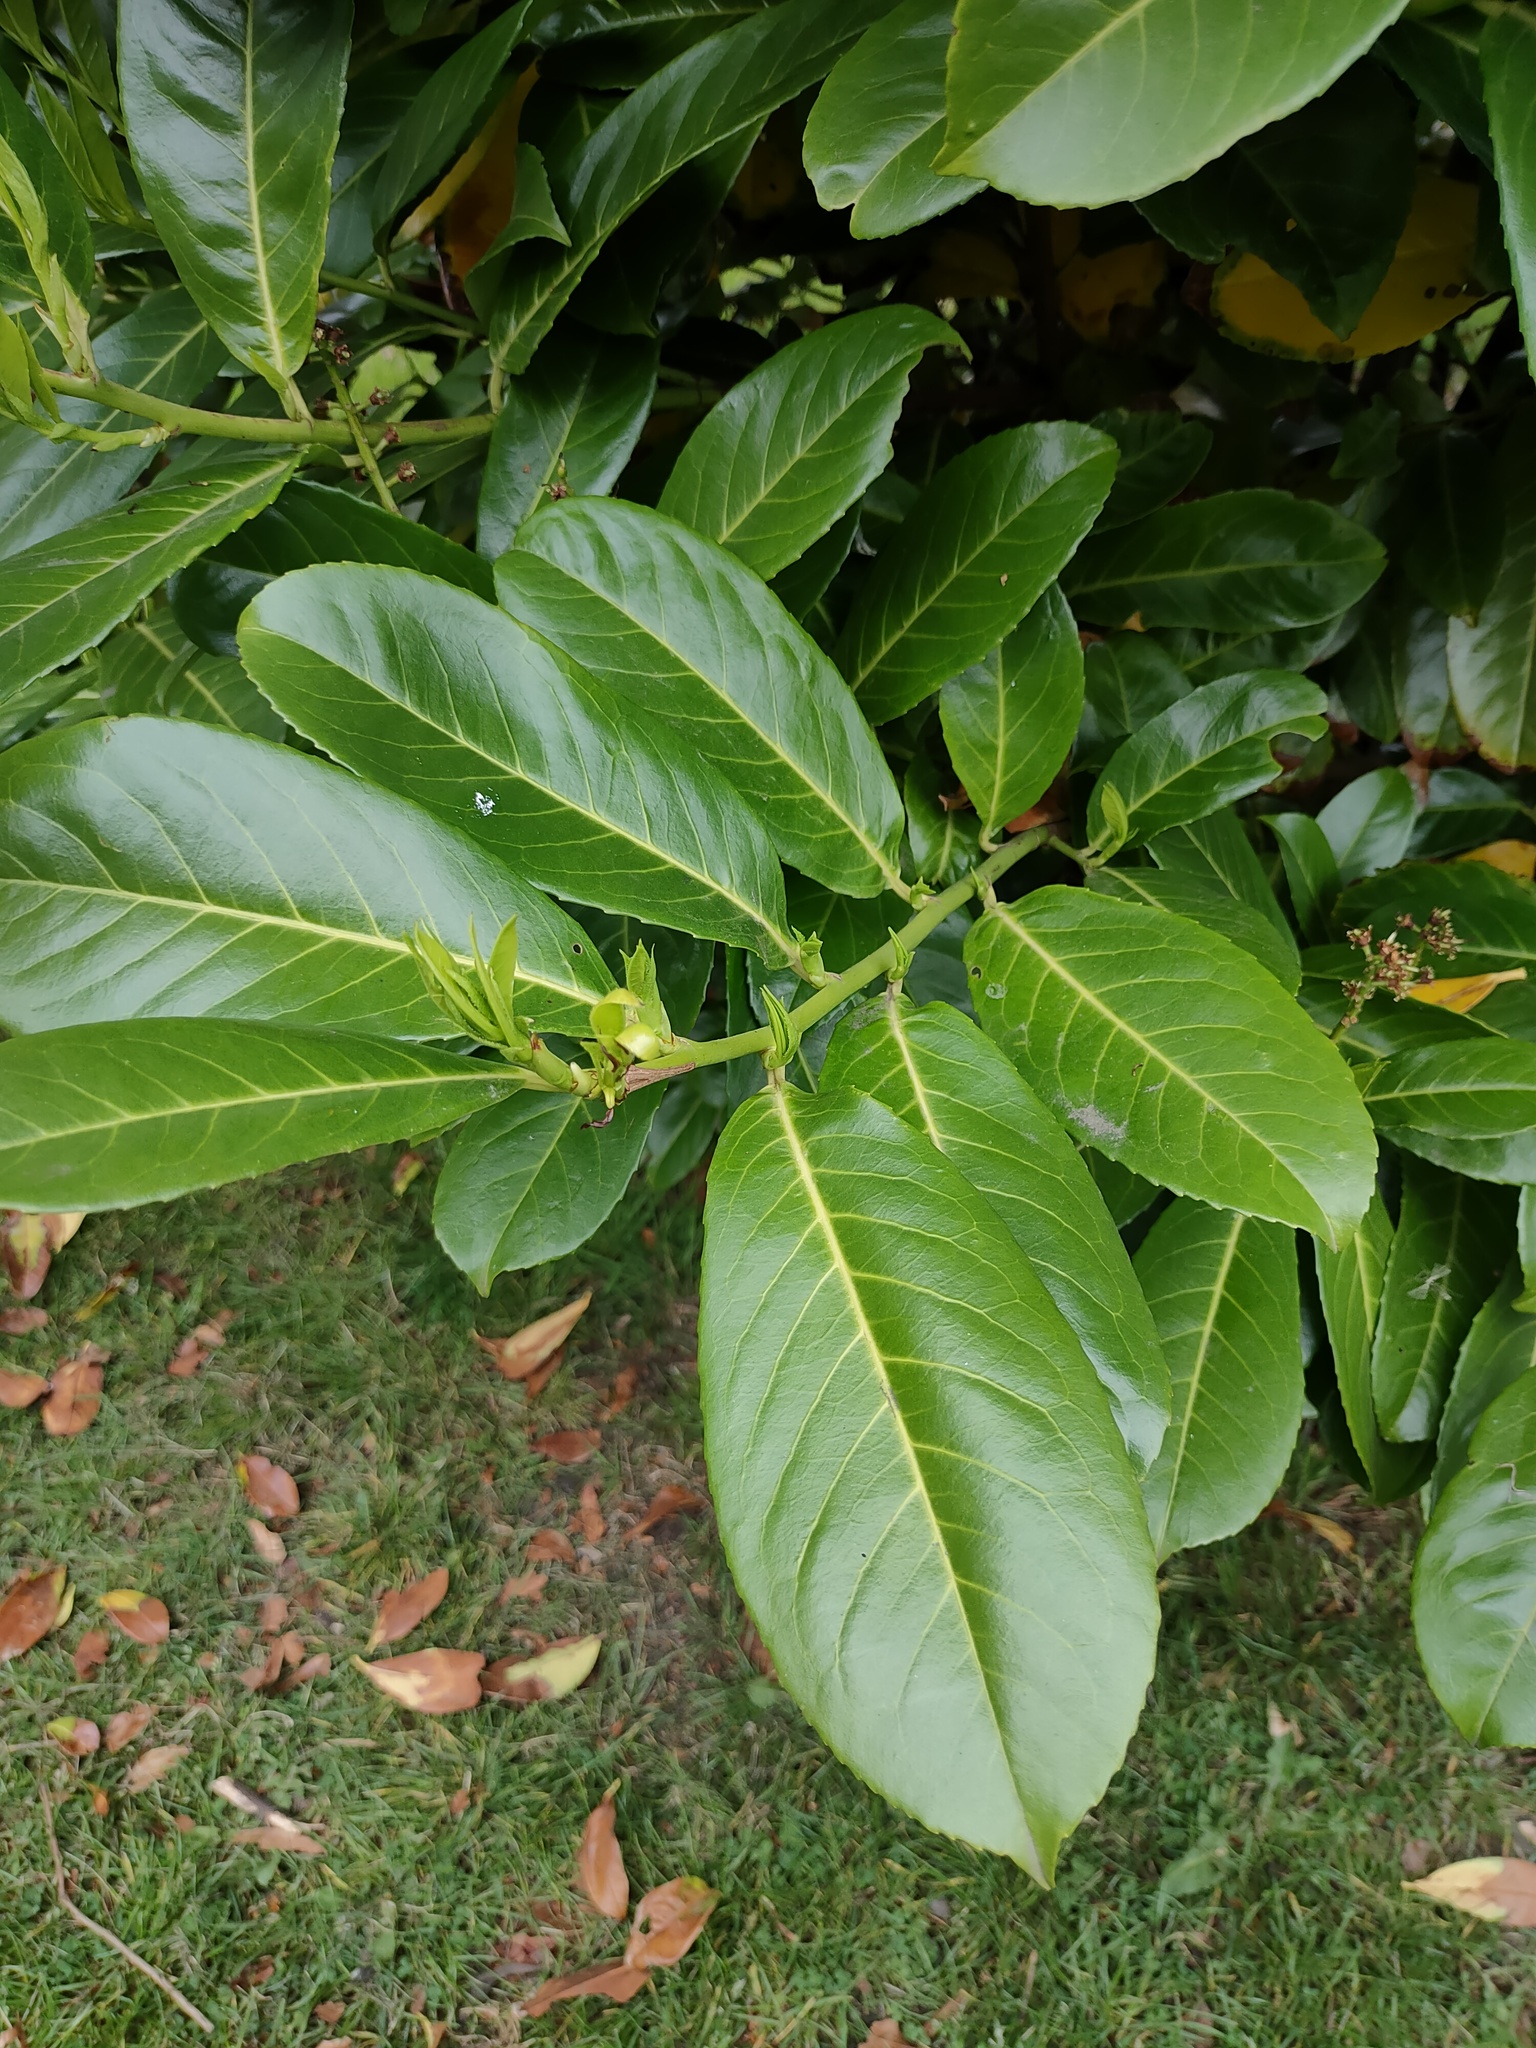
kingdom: Plantae
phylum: Tracheophyta
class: Magnoliopsida
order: Rosales
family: Rosaceae
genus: Prunus
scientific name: Prunus laurocerasus
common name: Cherry laurel
